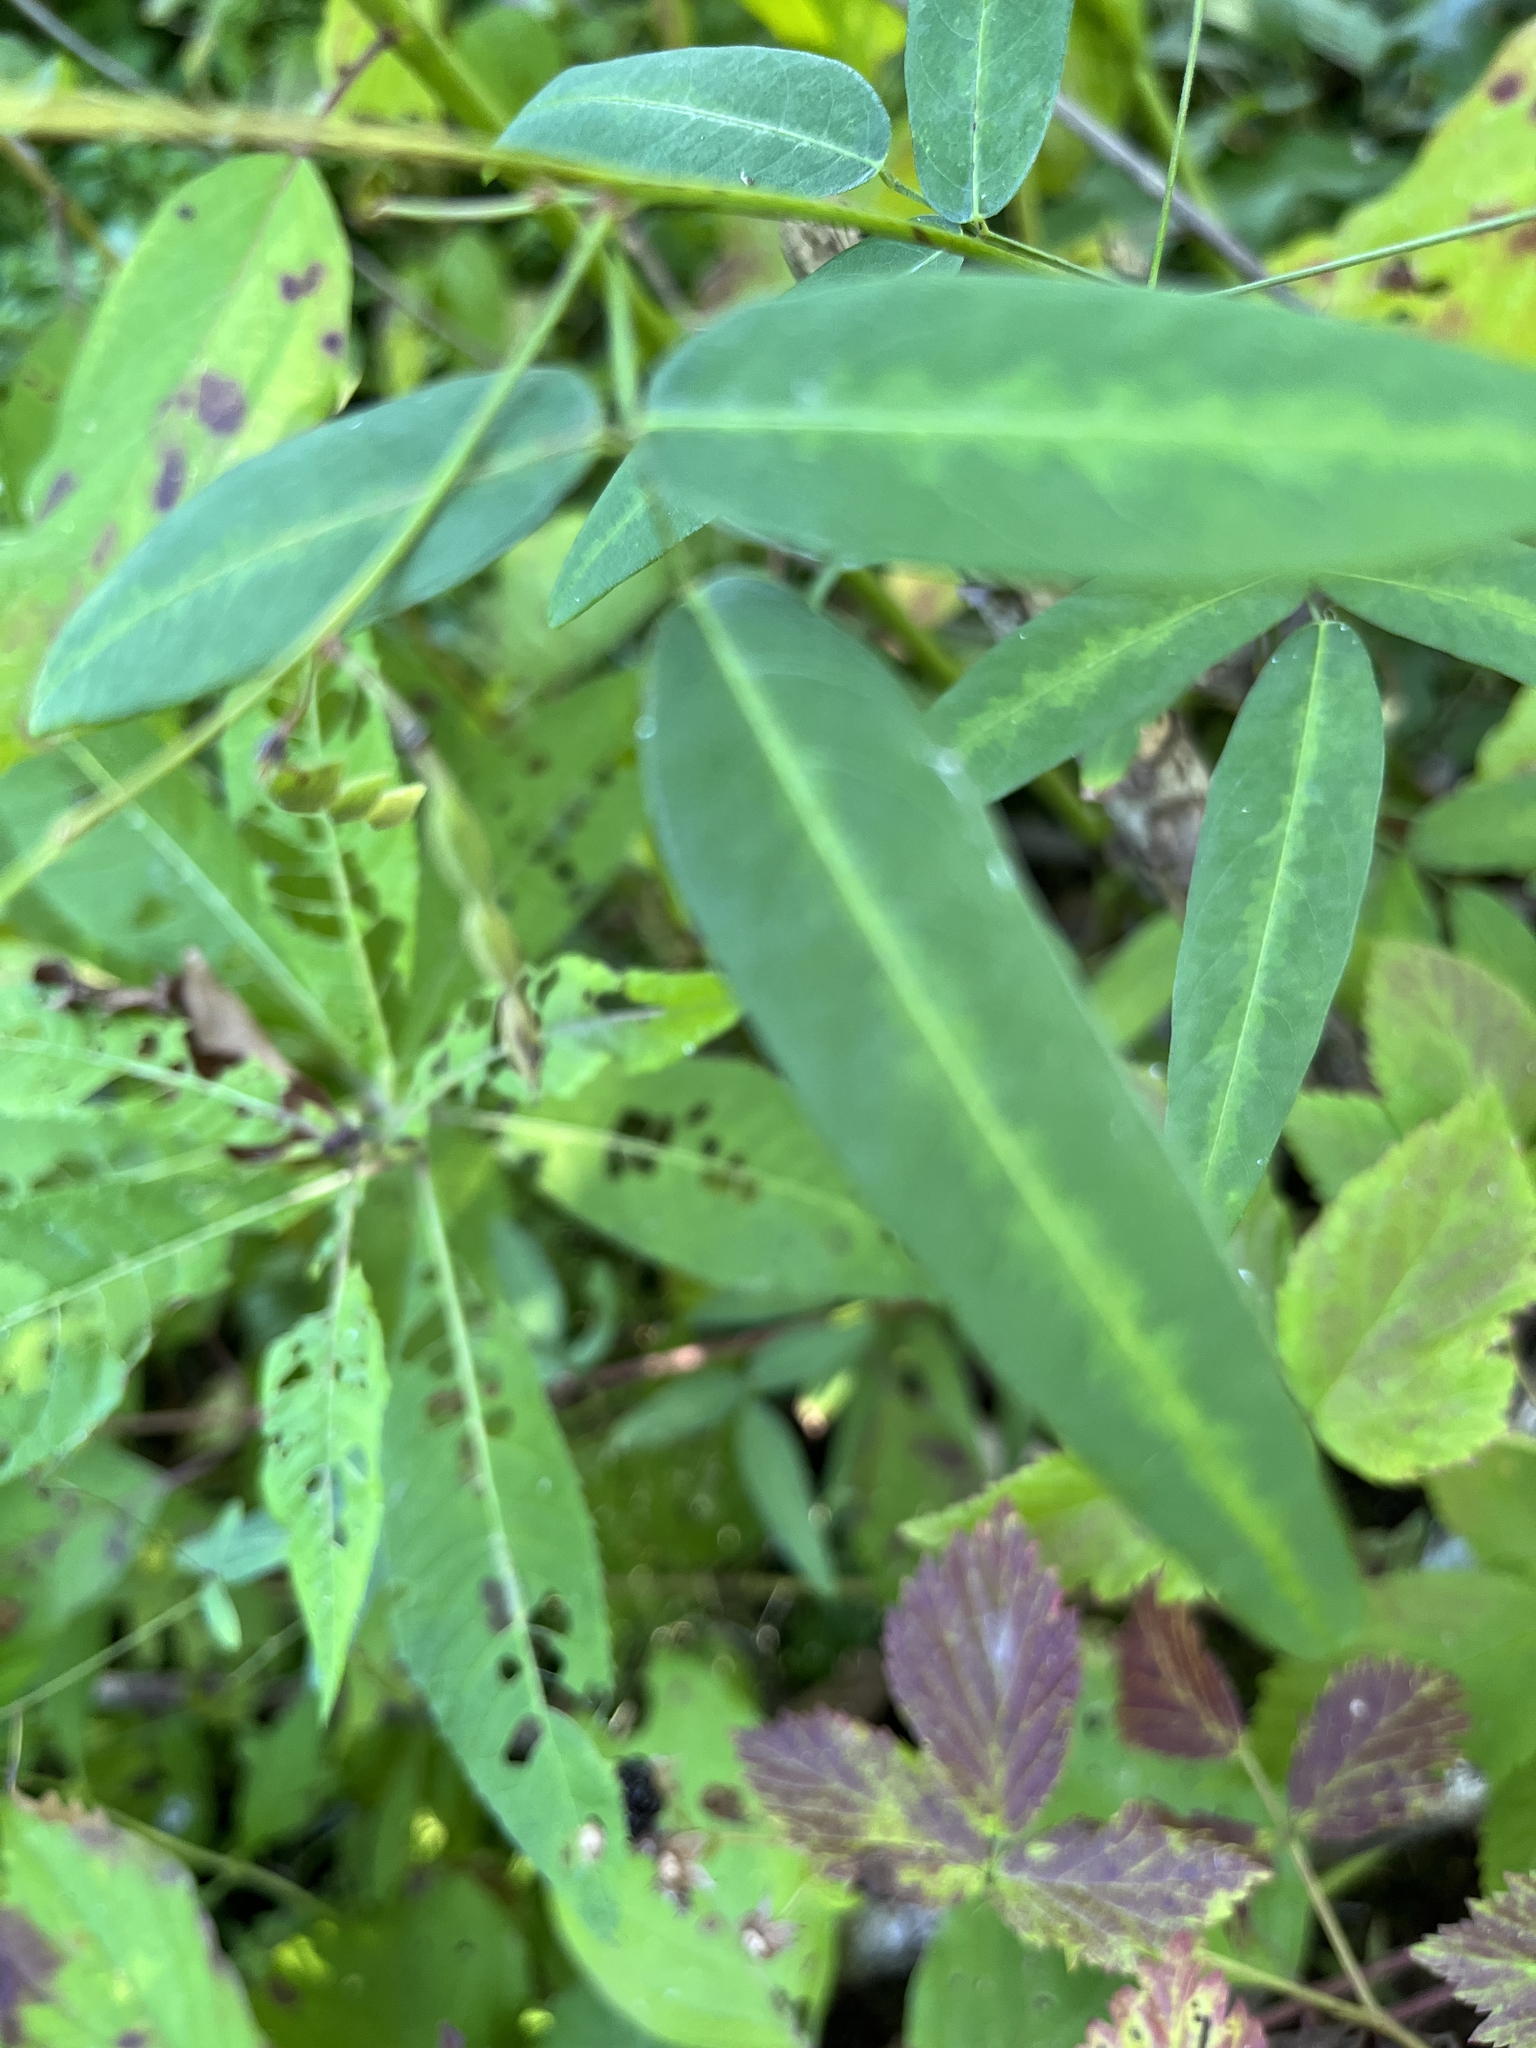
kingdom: Plantae
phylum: Tracheophyta
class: Magnoliopsida
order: Fabales
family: Fabaceae
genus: Desmodium
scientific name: Desmodium paniculatum
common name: Panicled tick-clover
